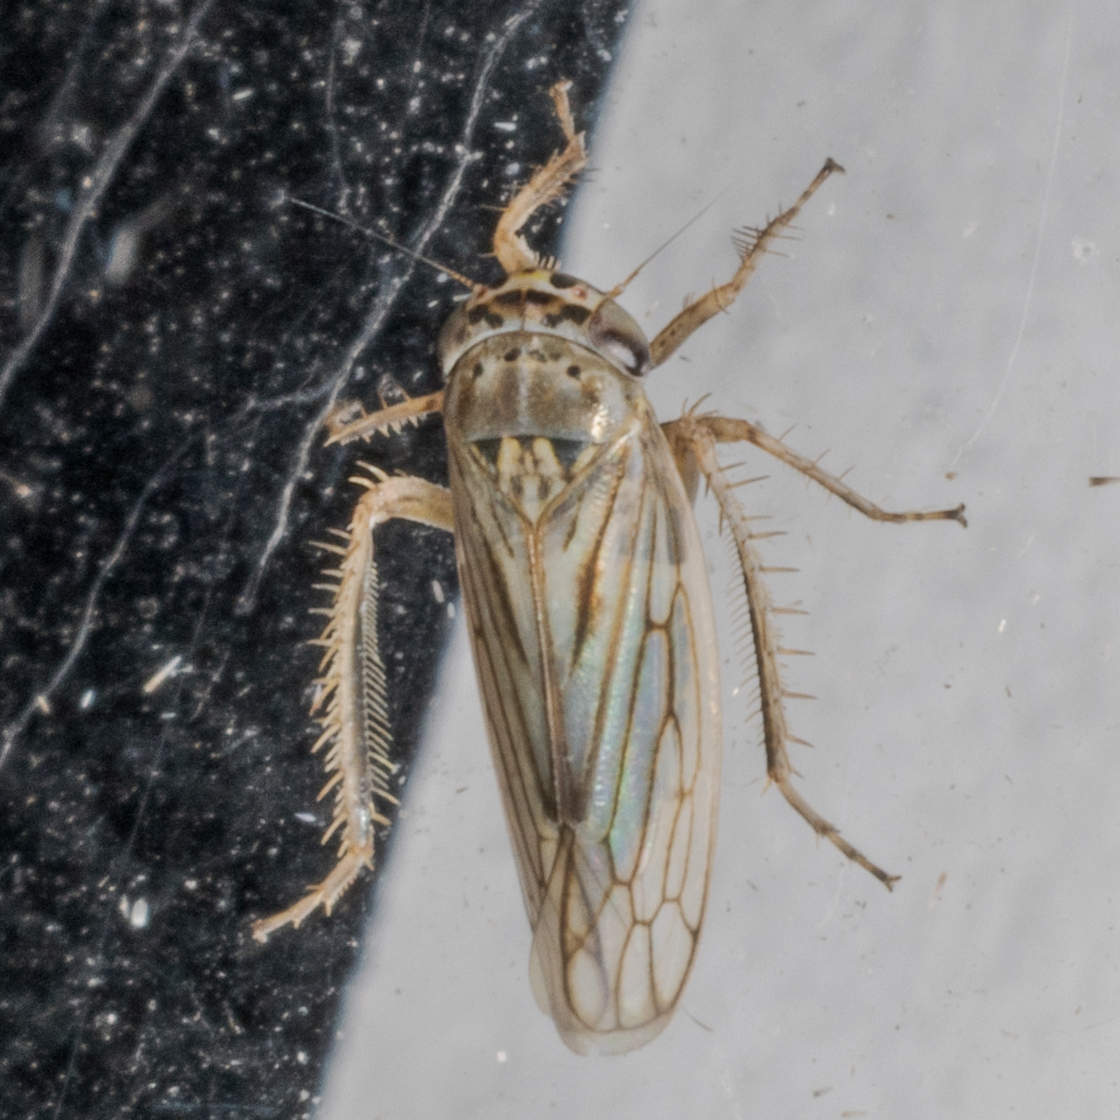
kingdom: Animalia
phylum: Arthropoda
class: Insecta
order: Hemiptera
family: Cicadellidae
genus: Exitianus
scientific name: Exitianus exitiosus
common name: Gray lawn leafhopper
